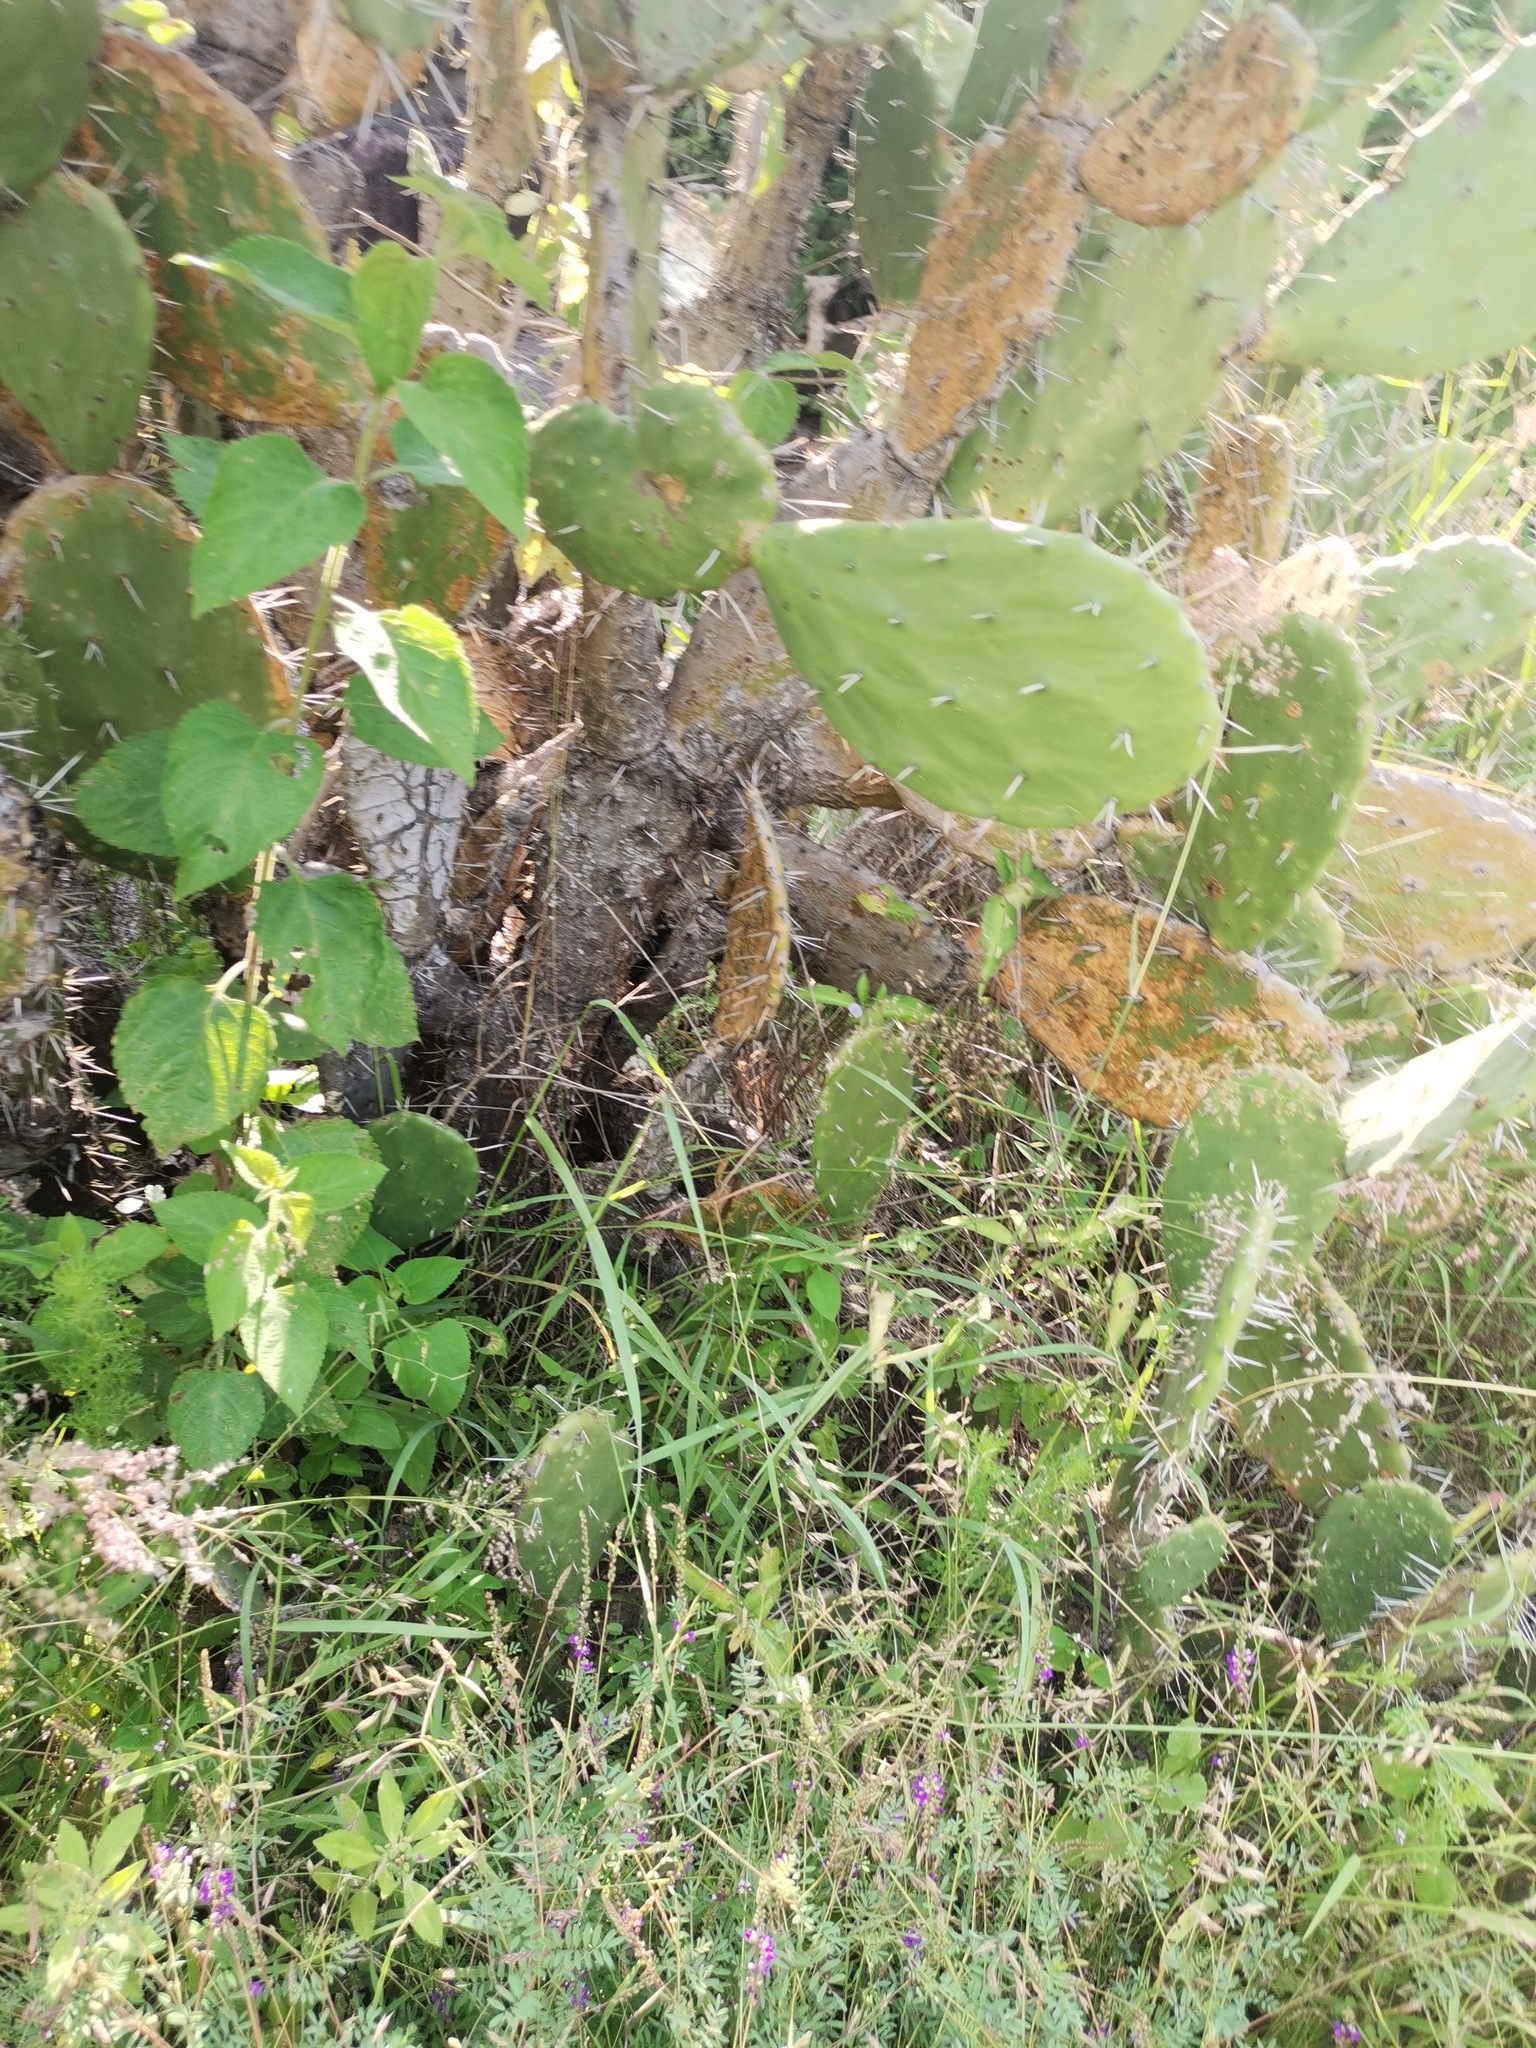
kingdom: Plantae
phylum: Tracheophyta
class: Magnoliopsida
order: Caryophyllales
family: Cactaceae
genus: Opuntia
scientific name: Opuntia tomentosa
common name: Woollyjoint pricklypear
